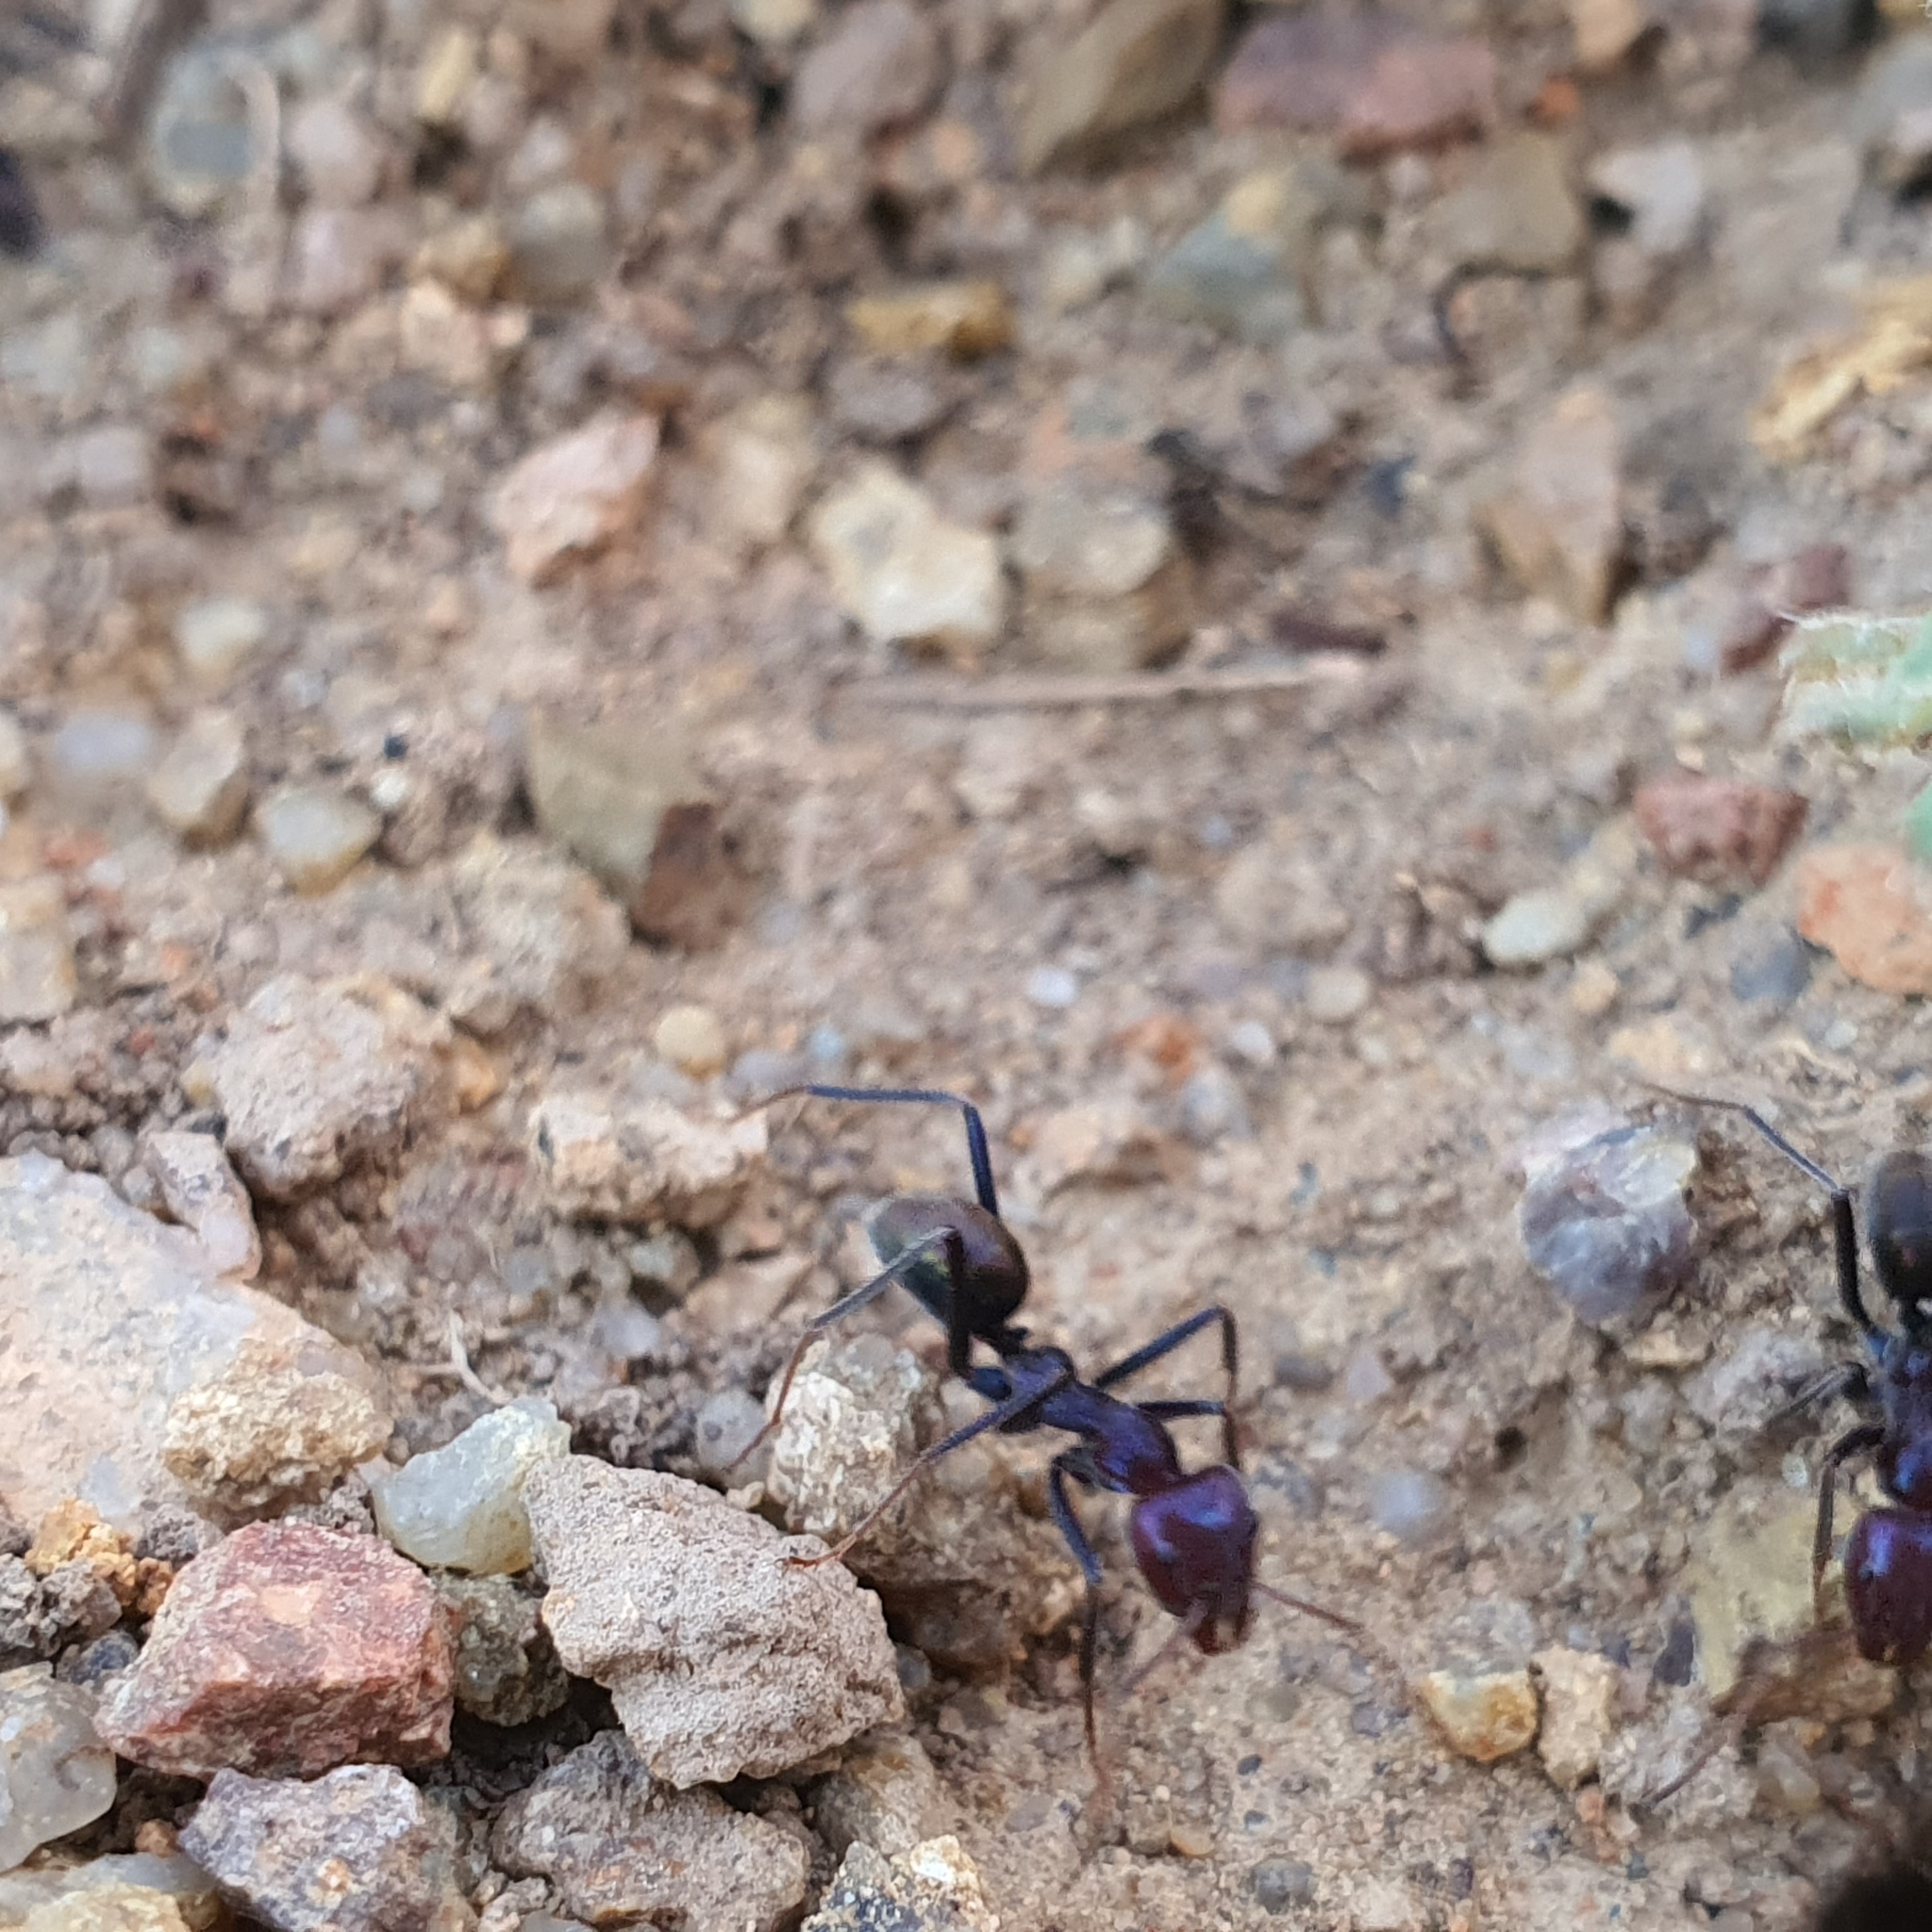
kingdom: Animalia
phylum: Arthropoda
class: Insecta
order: Hymenoptera
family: Formicidae
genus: Iridomyrmex
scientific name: Iridomyrmex purpureus
